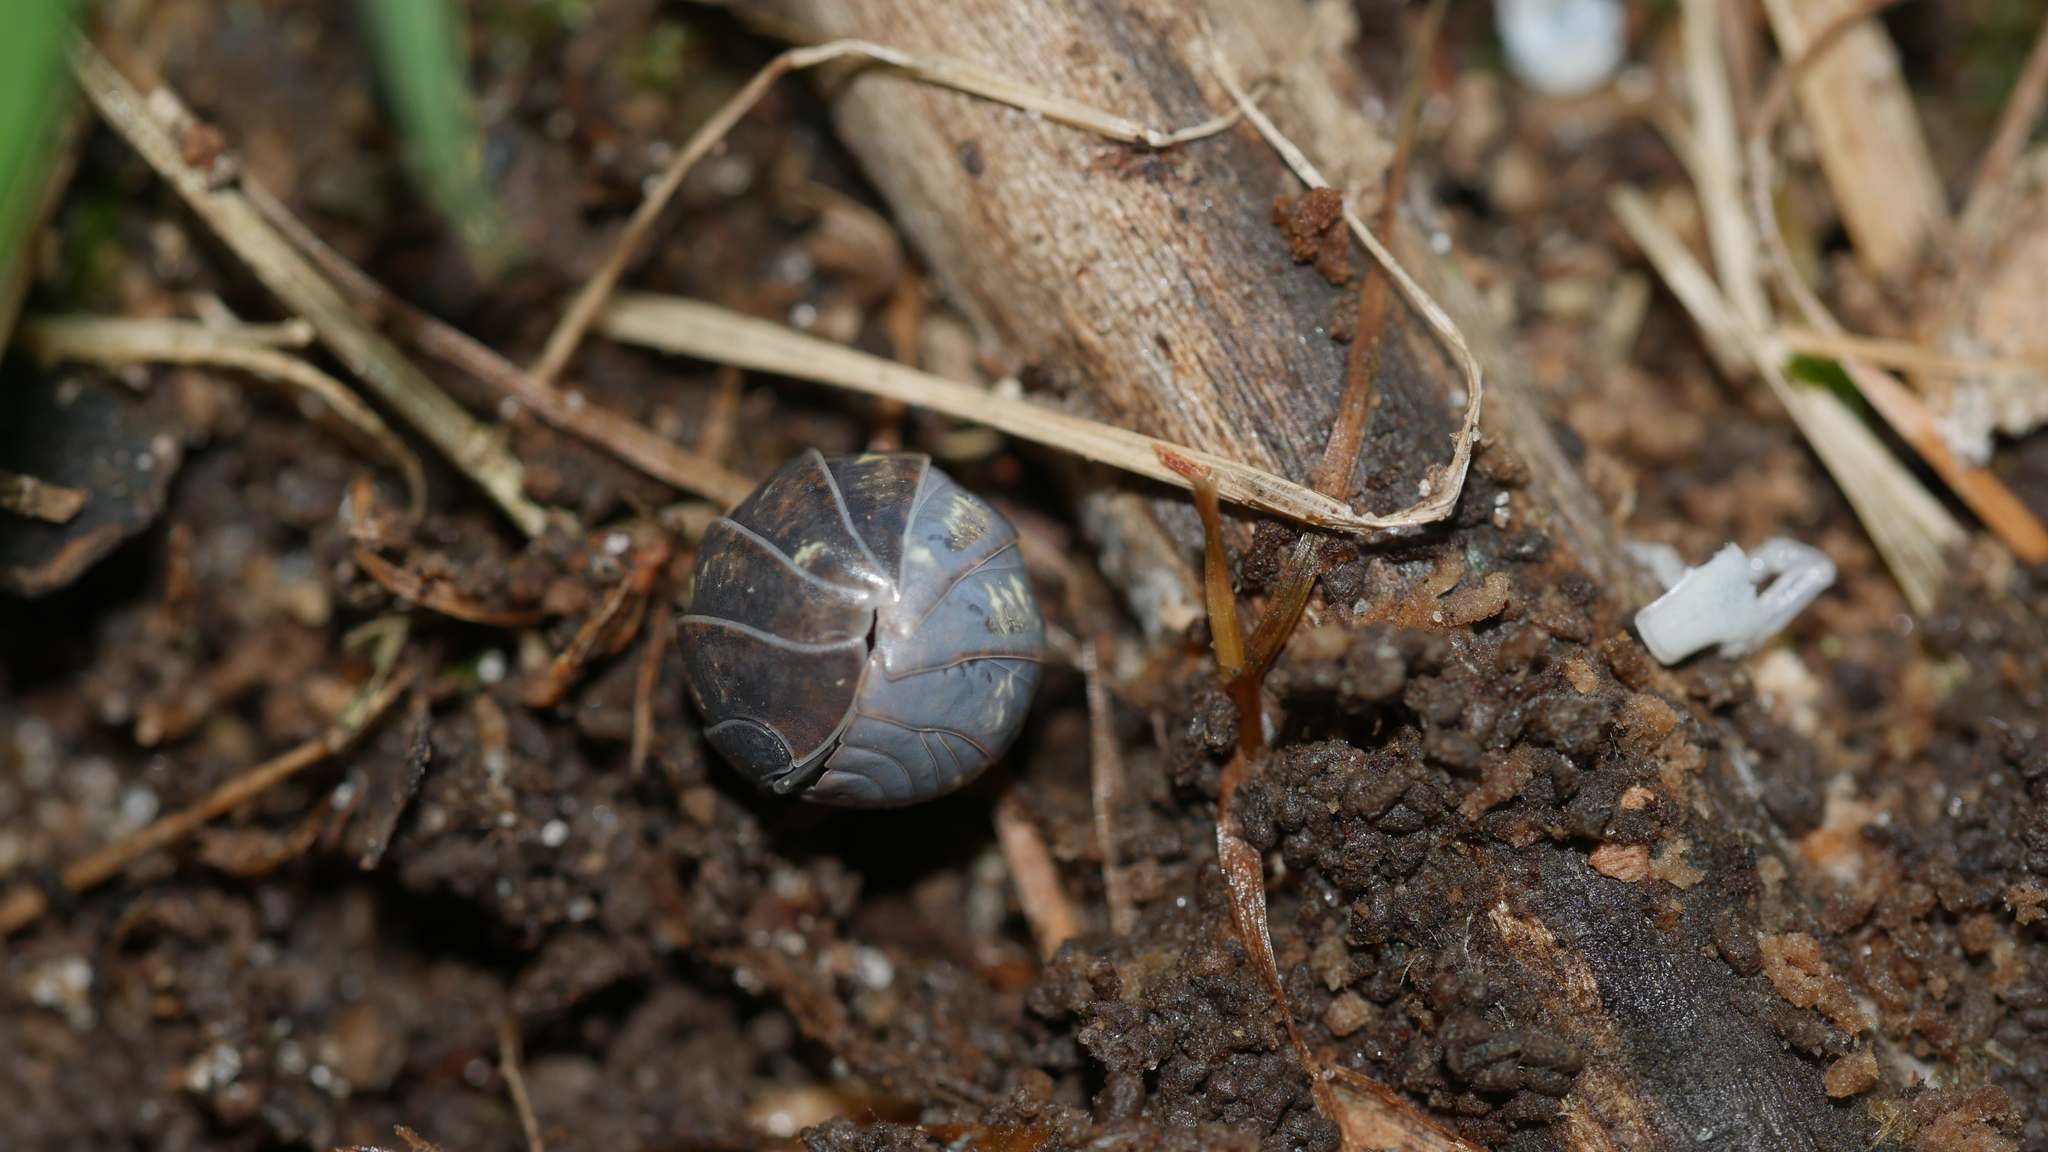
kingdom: Animalia
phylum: Arthropoda
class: Malacostraca
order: Isopoda
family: Armadillidiidae
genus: Armadillidium
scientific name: Armadillidium vulgare
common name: Common pill woodlouse
